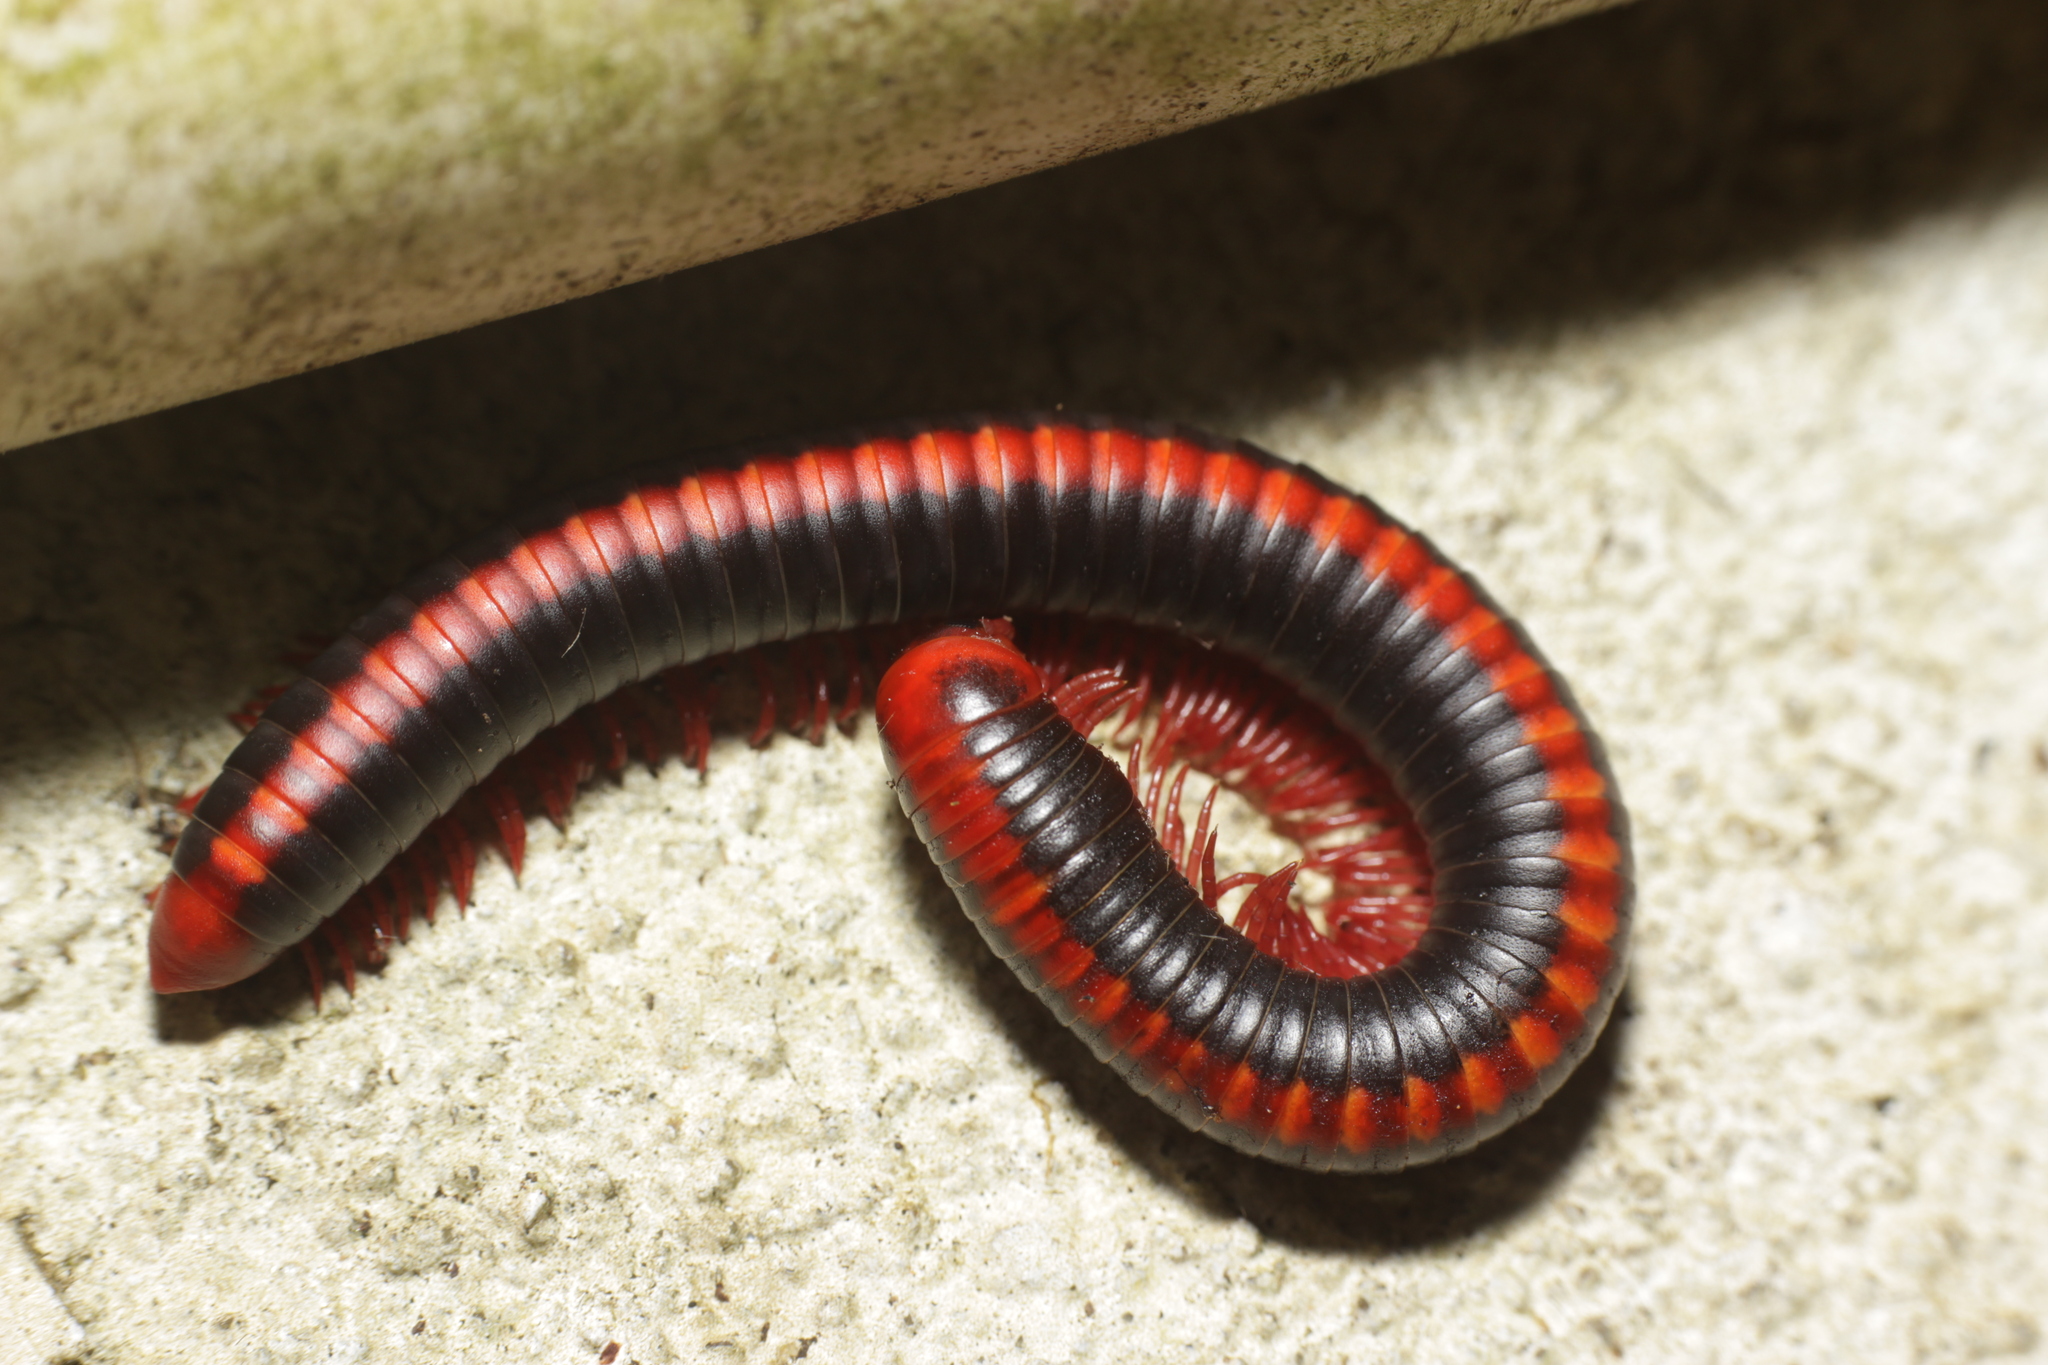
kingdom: Animalia
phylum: Arthropoda
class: Diplopoda
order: Spirobolida
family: Pachybolidae
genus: Xenobolus
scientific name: Xenobolus carnifex
